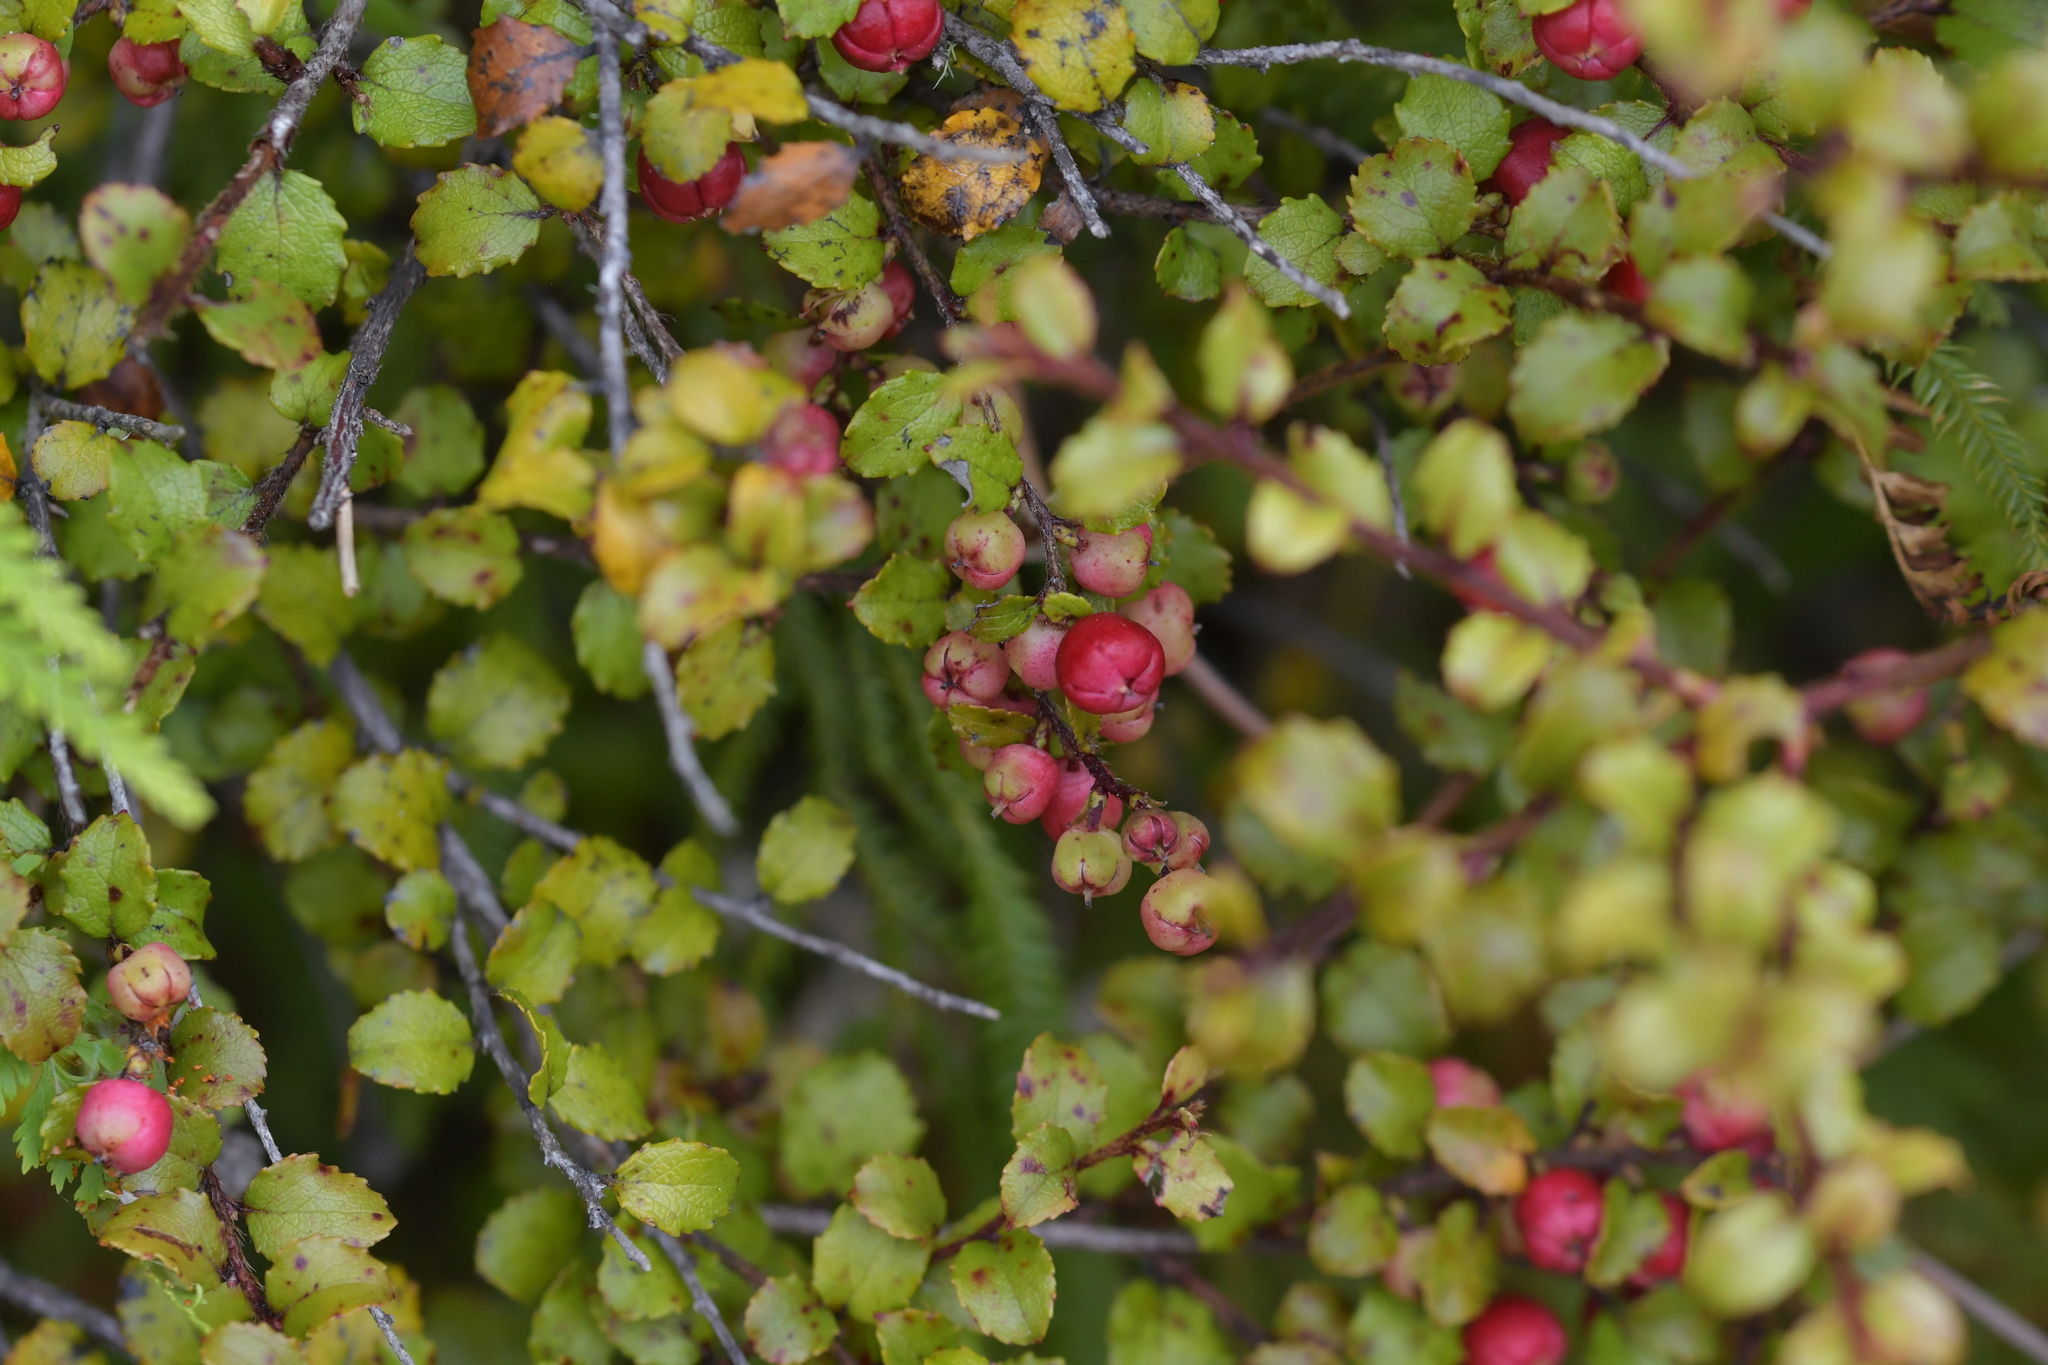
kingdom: Plantae
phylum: Tracheophyta
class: Magnoliopsida
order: Ericales
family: Ericaceae
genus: Gaultheria
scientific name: Gaultheria antipoda
